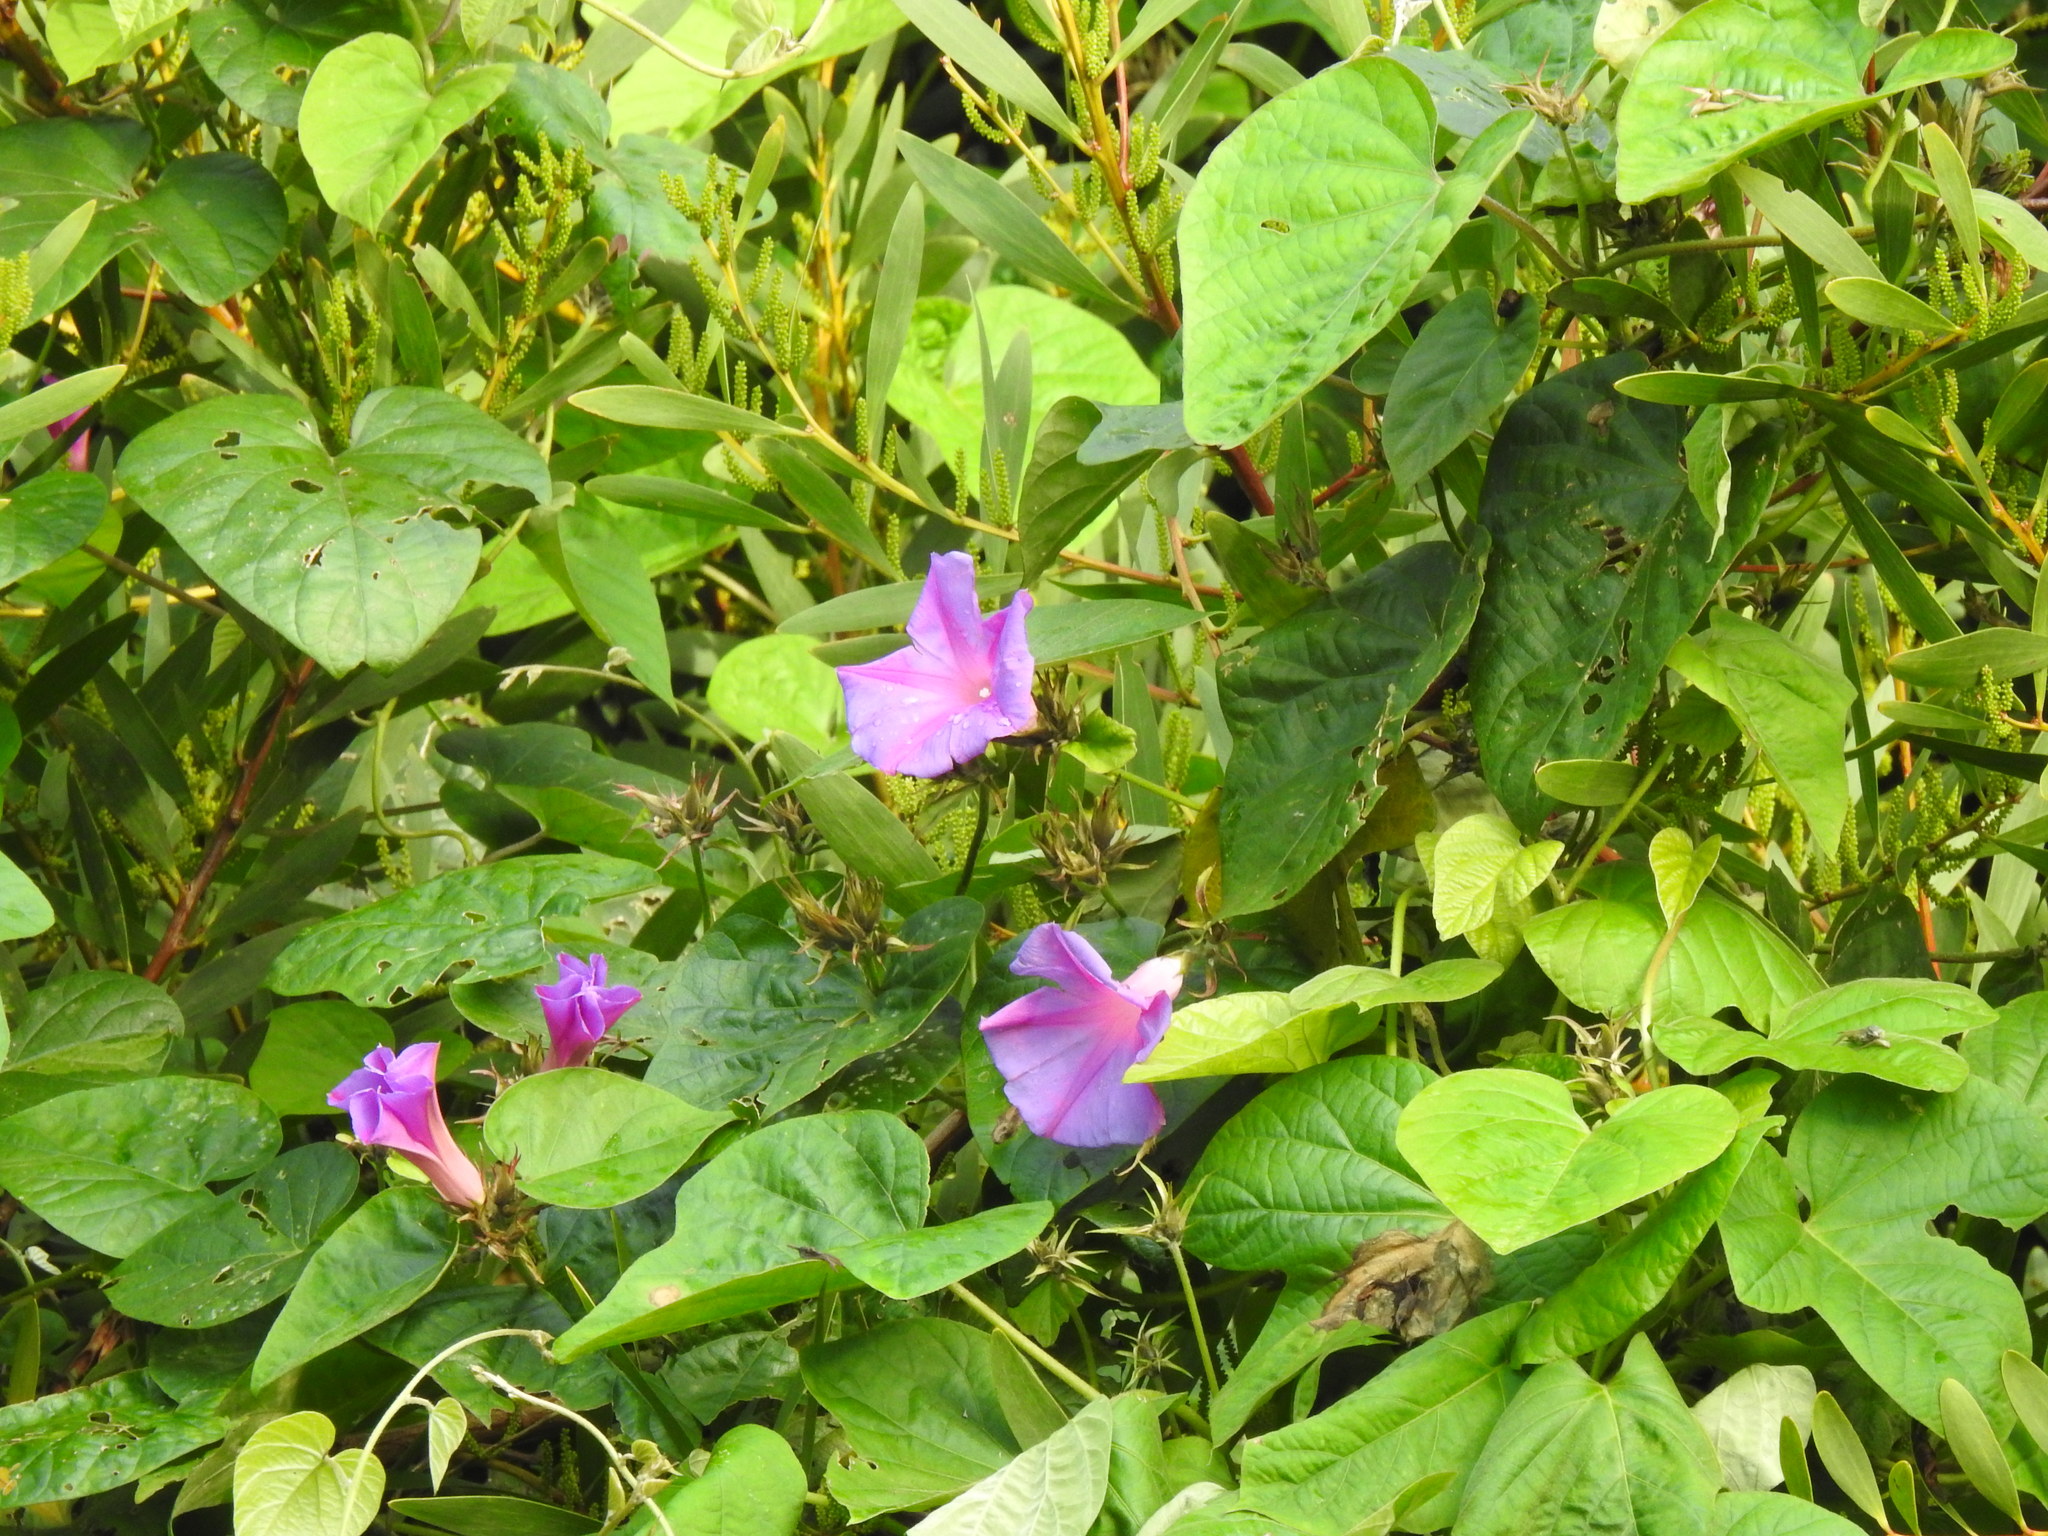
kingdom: Plantae
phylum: Tracheophyta
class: Magnoliopsida
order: Solanales
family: Convolvulaceae
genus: Ipomoea
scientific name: Ipomoea indica
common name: Blue dawnflower
